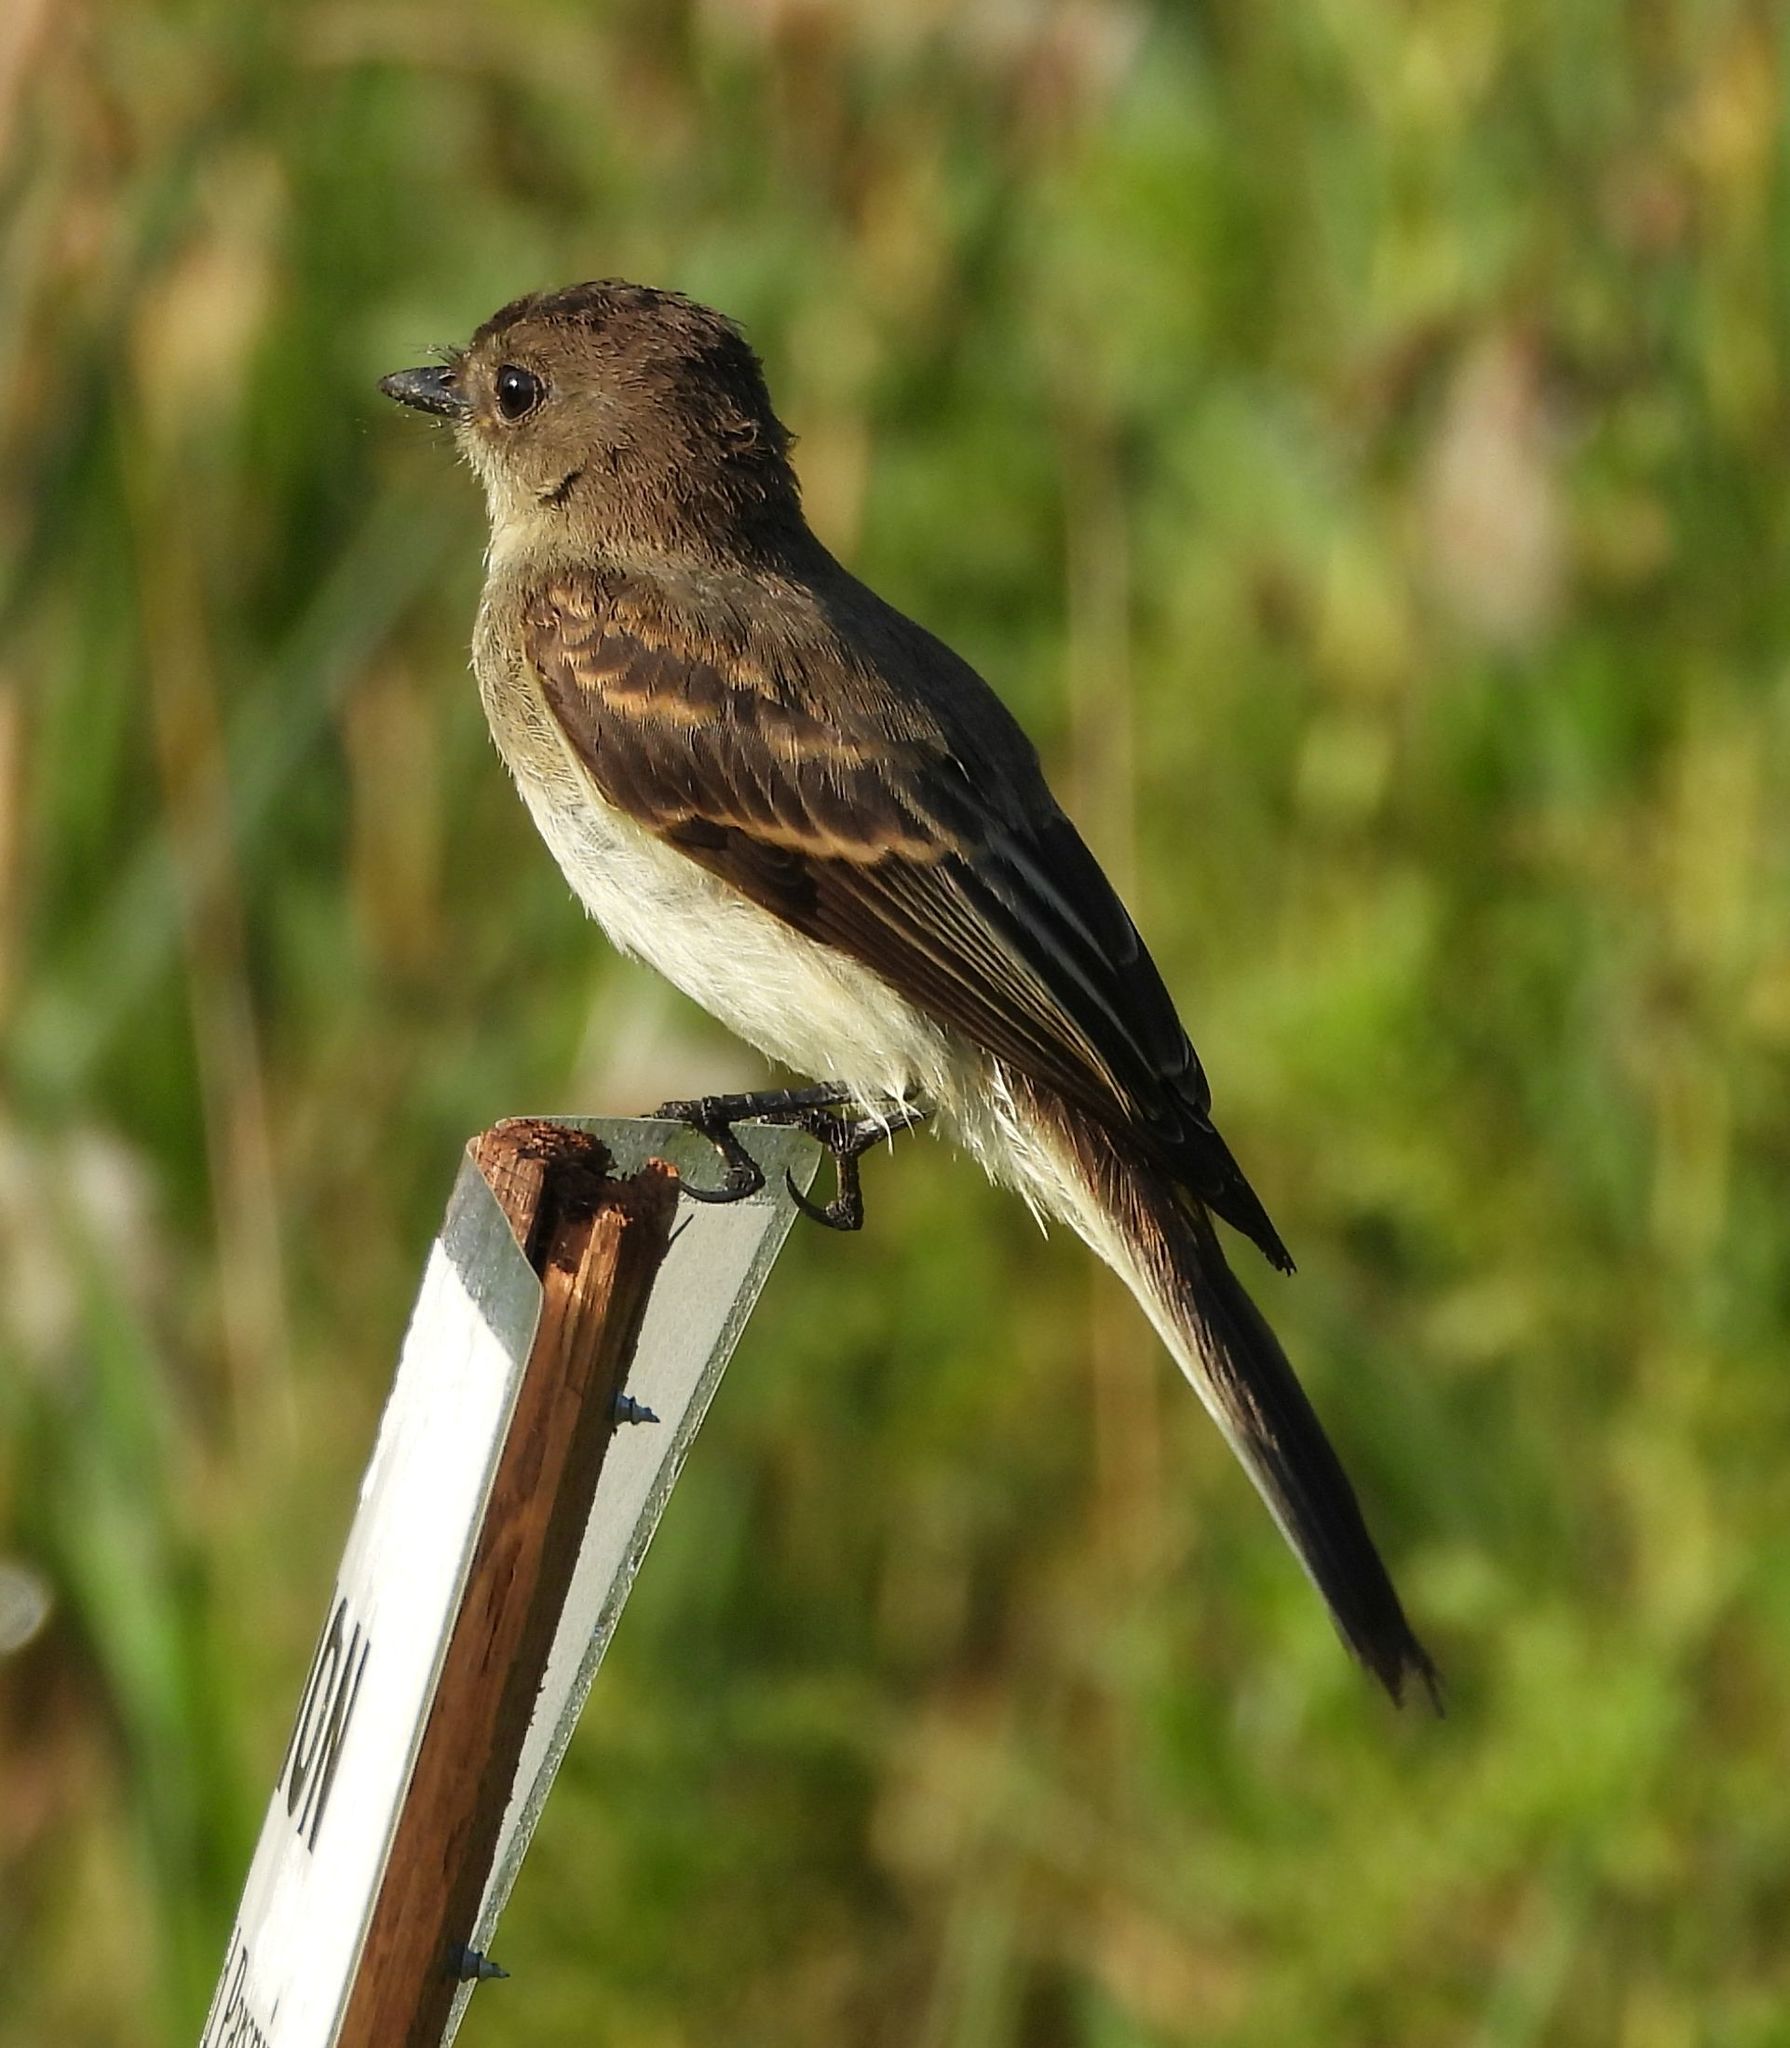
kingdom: Animalia
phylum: Chordata
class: Aves
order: Passeriformes
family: Tyrannidae
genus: Sayornis
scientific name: Sayornis phoebe
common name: Eastern phoebe
